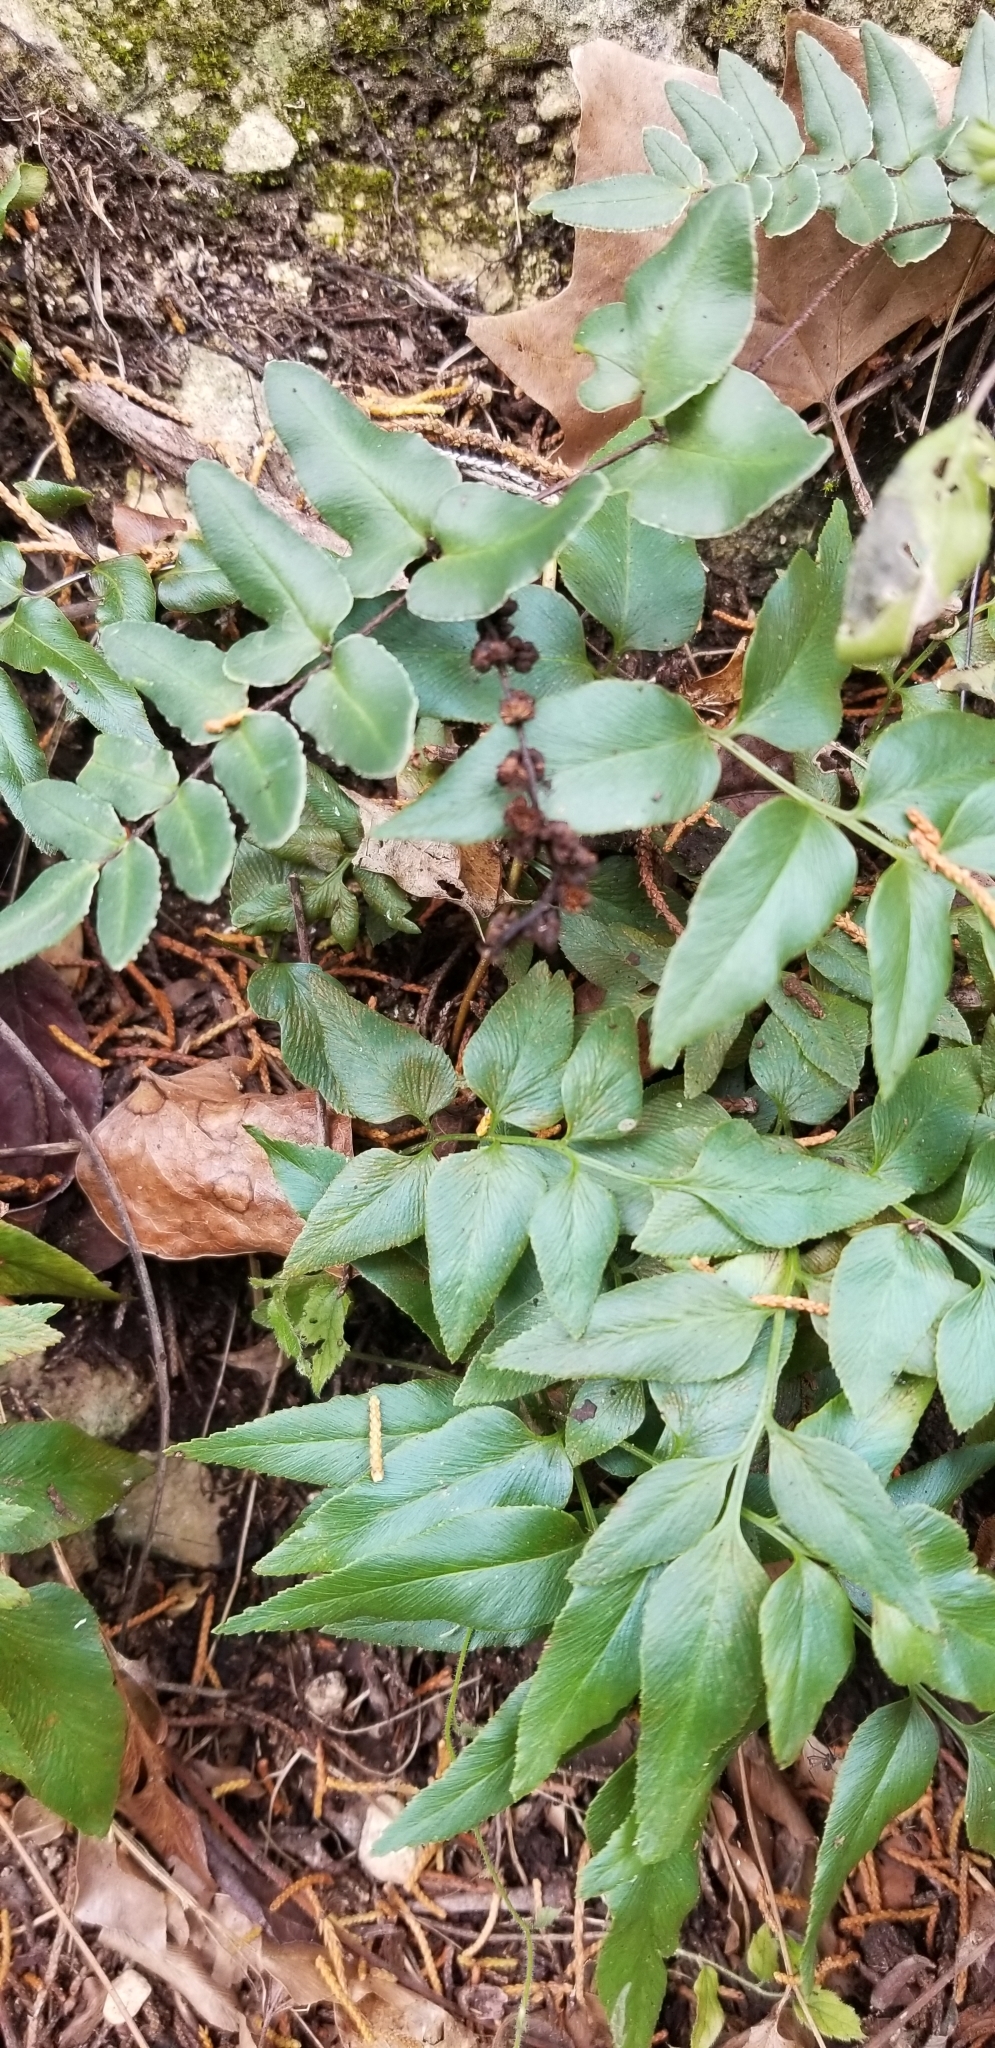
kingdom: Plantae
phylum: Tracheophyta
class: Polypodiopsida
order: Polypodiales
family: Pteridaceae
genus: Pellaea
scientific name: Pellaea atropurpurea
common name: Hairy cliffbrake
